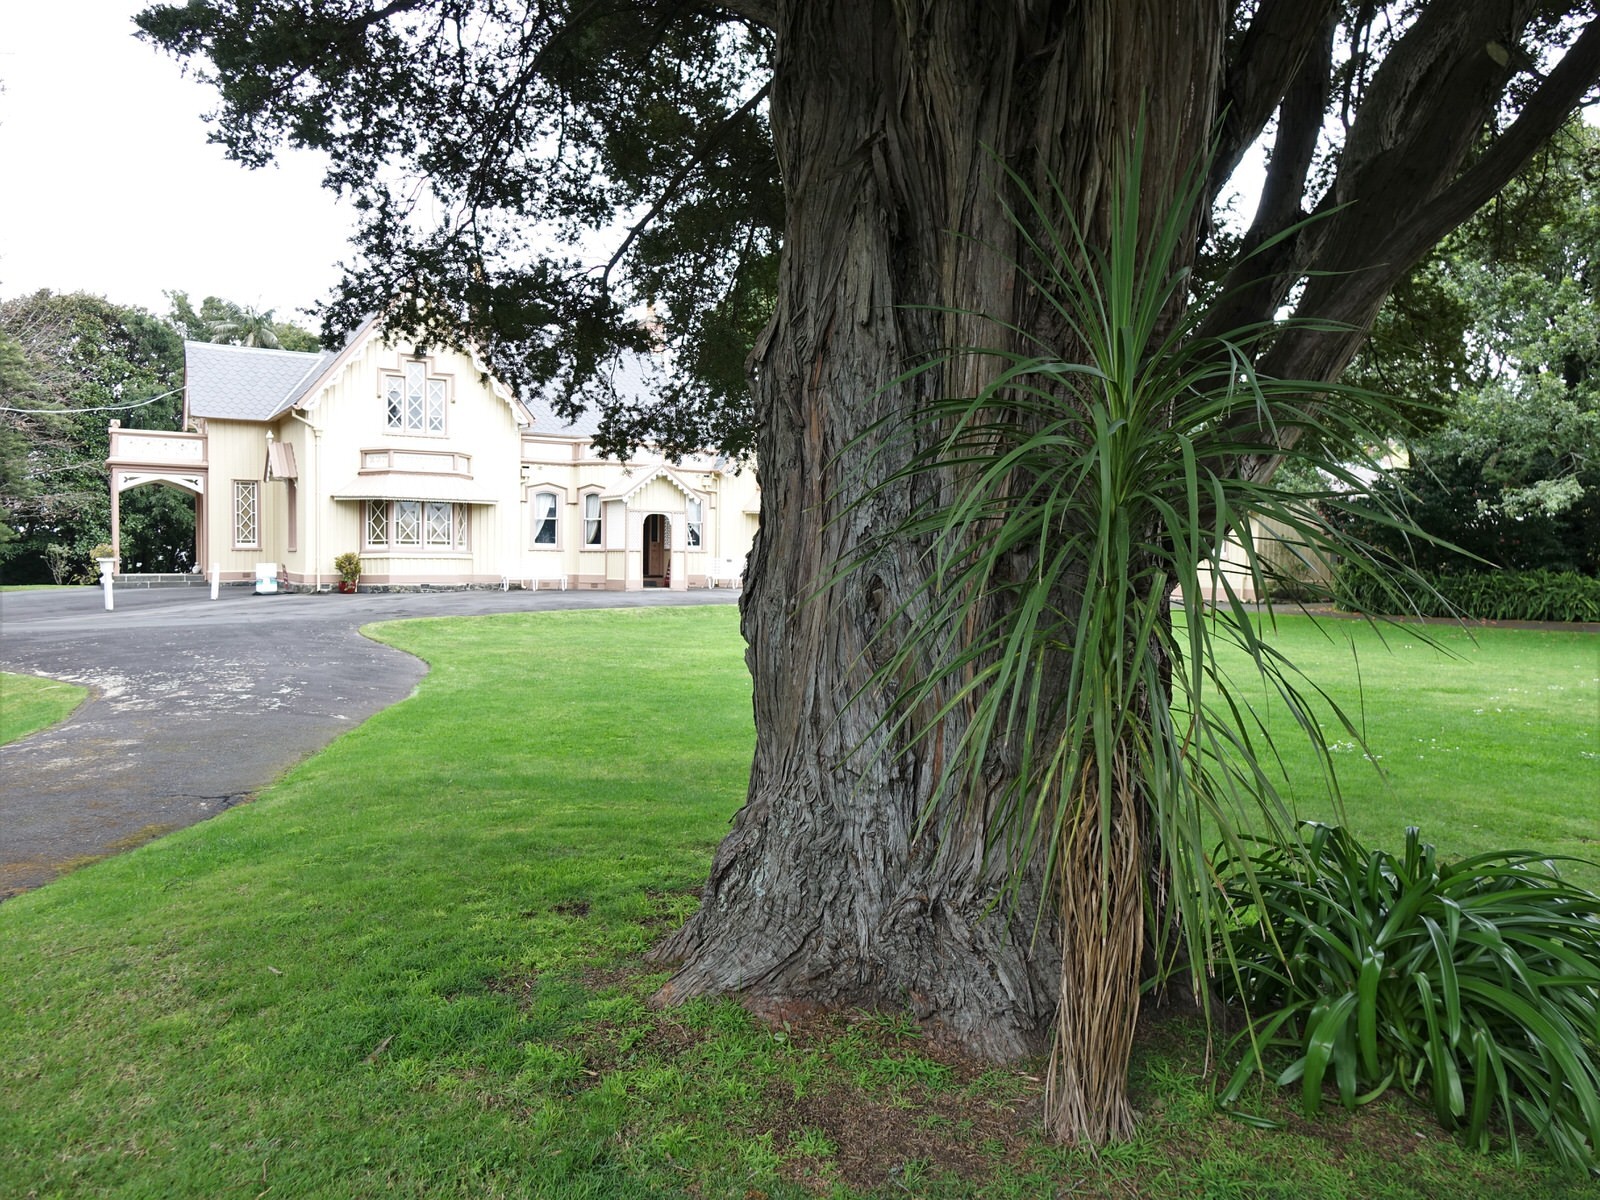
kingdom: Plantae
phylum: Tracheophyta
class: Pinopsida
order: Pinales
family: Podocarpaceae
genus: Podocarpus
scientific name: Podocarpus totara
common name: Totara
